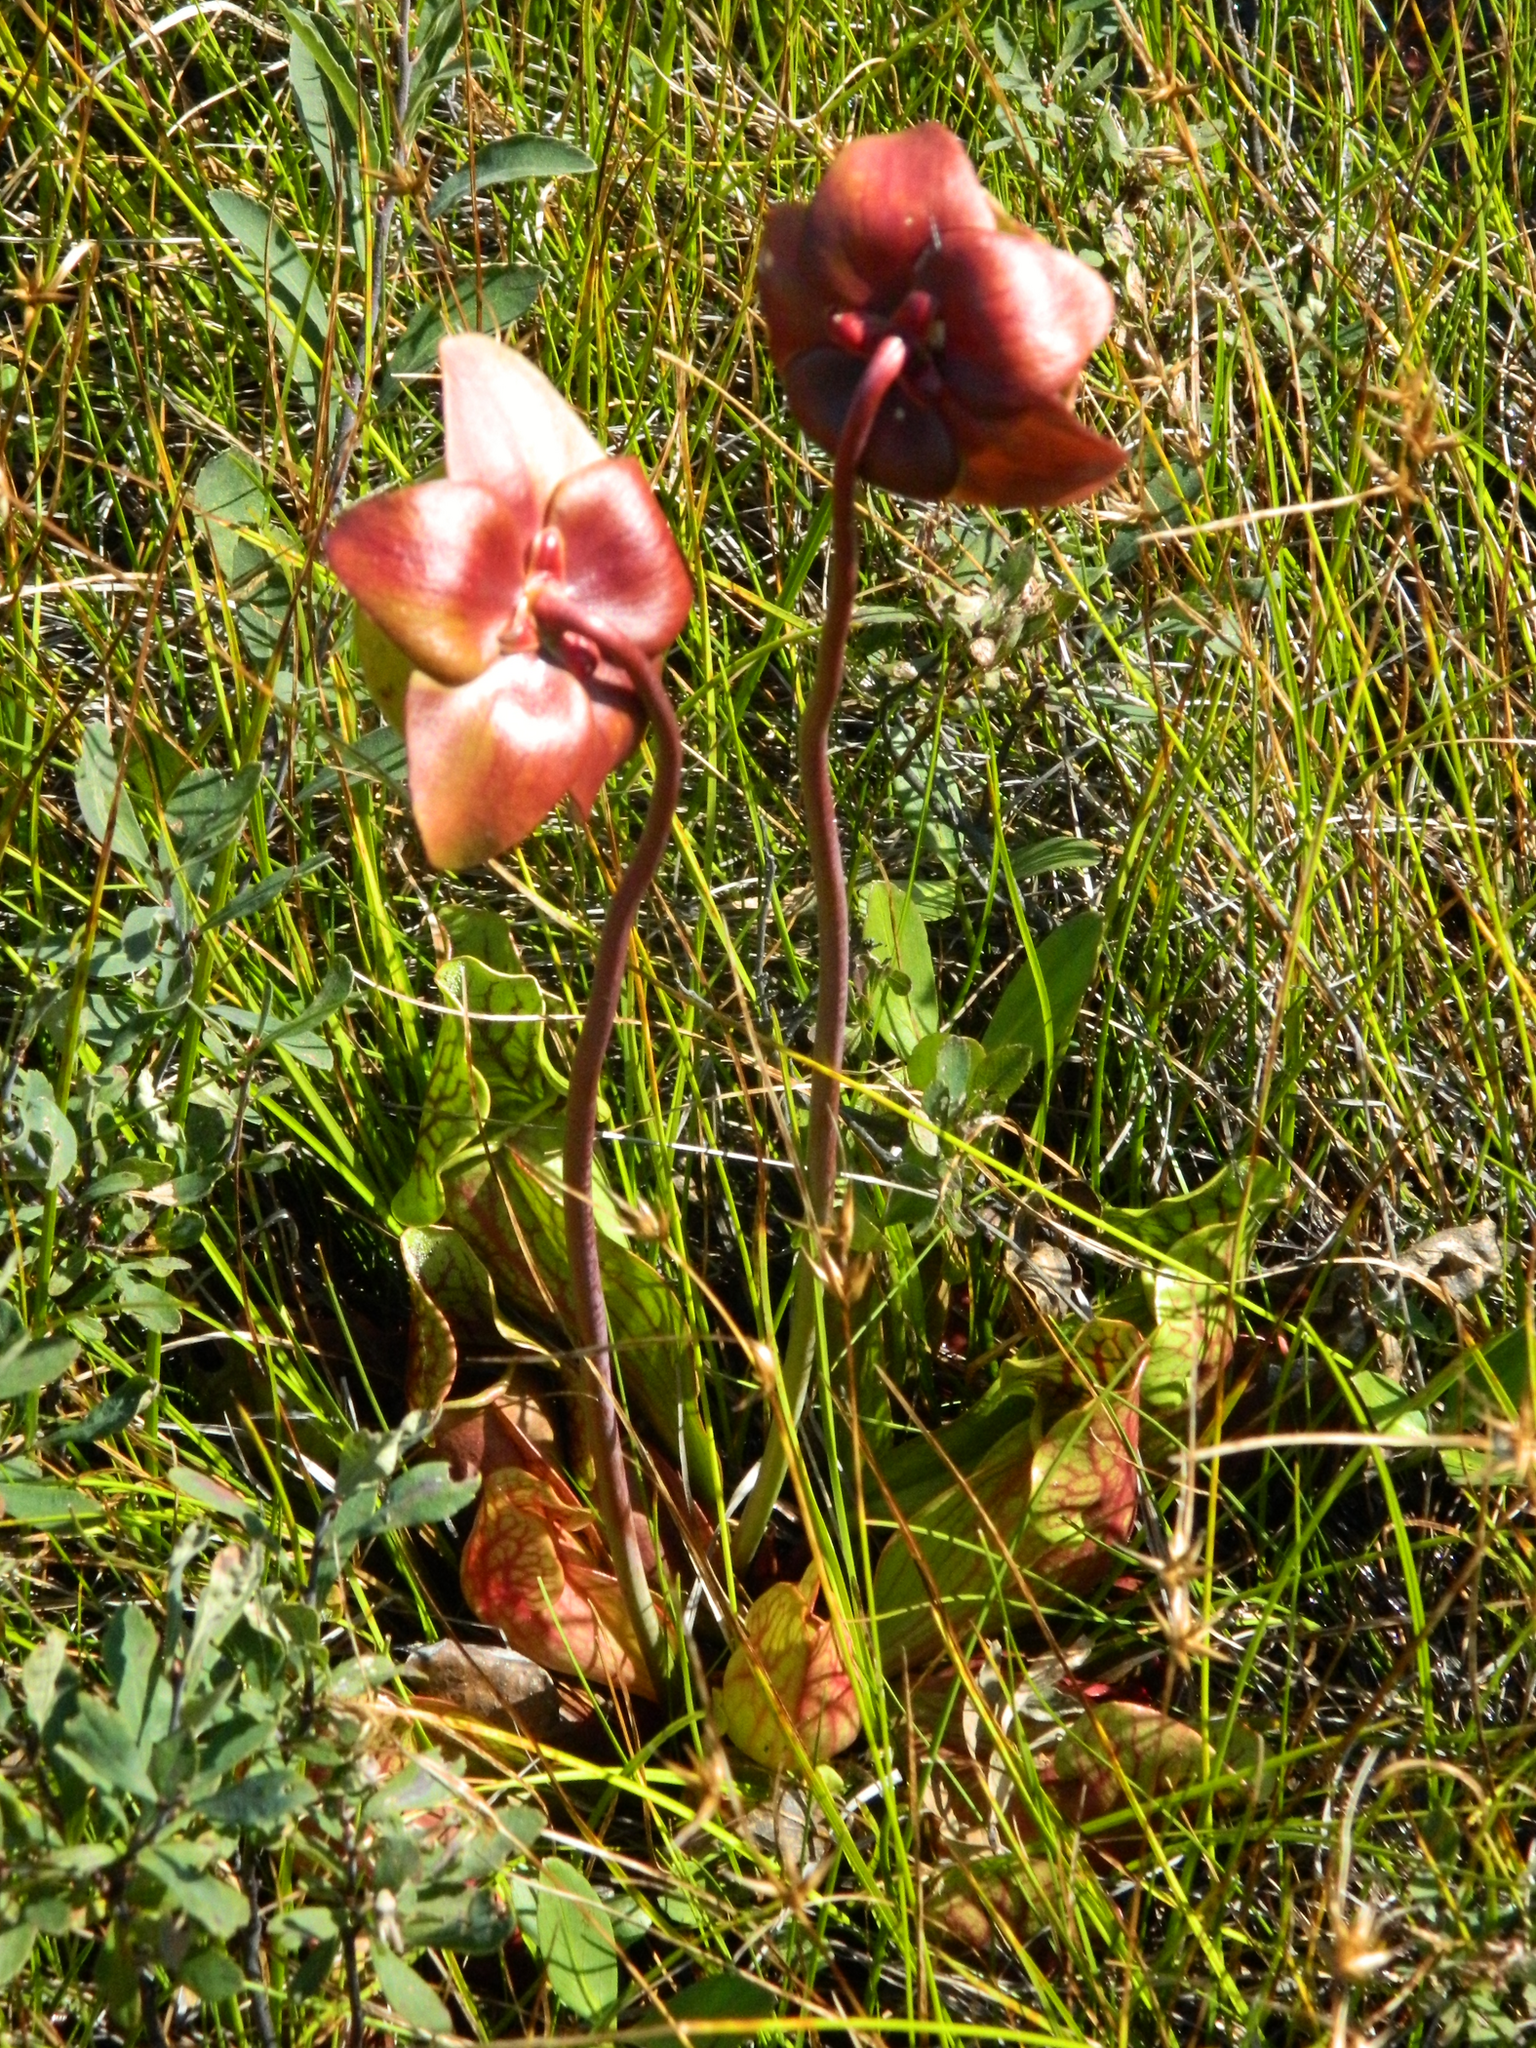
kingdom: Plantae
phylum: Tracheophyta
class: Magnoliopsida
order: Ericales
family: Sarraceniaceae
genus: Sarracenia
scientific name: Sarracenia purpurea
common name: Pitcherplant
